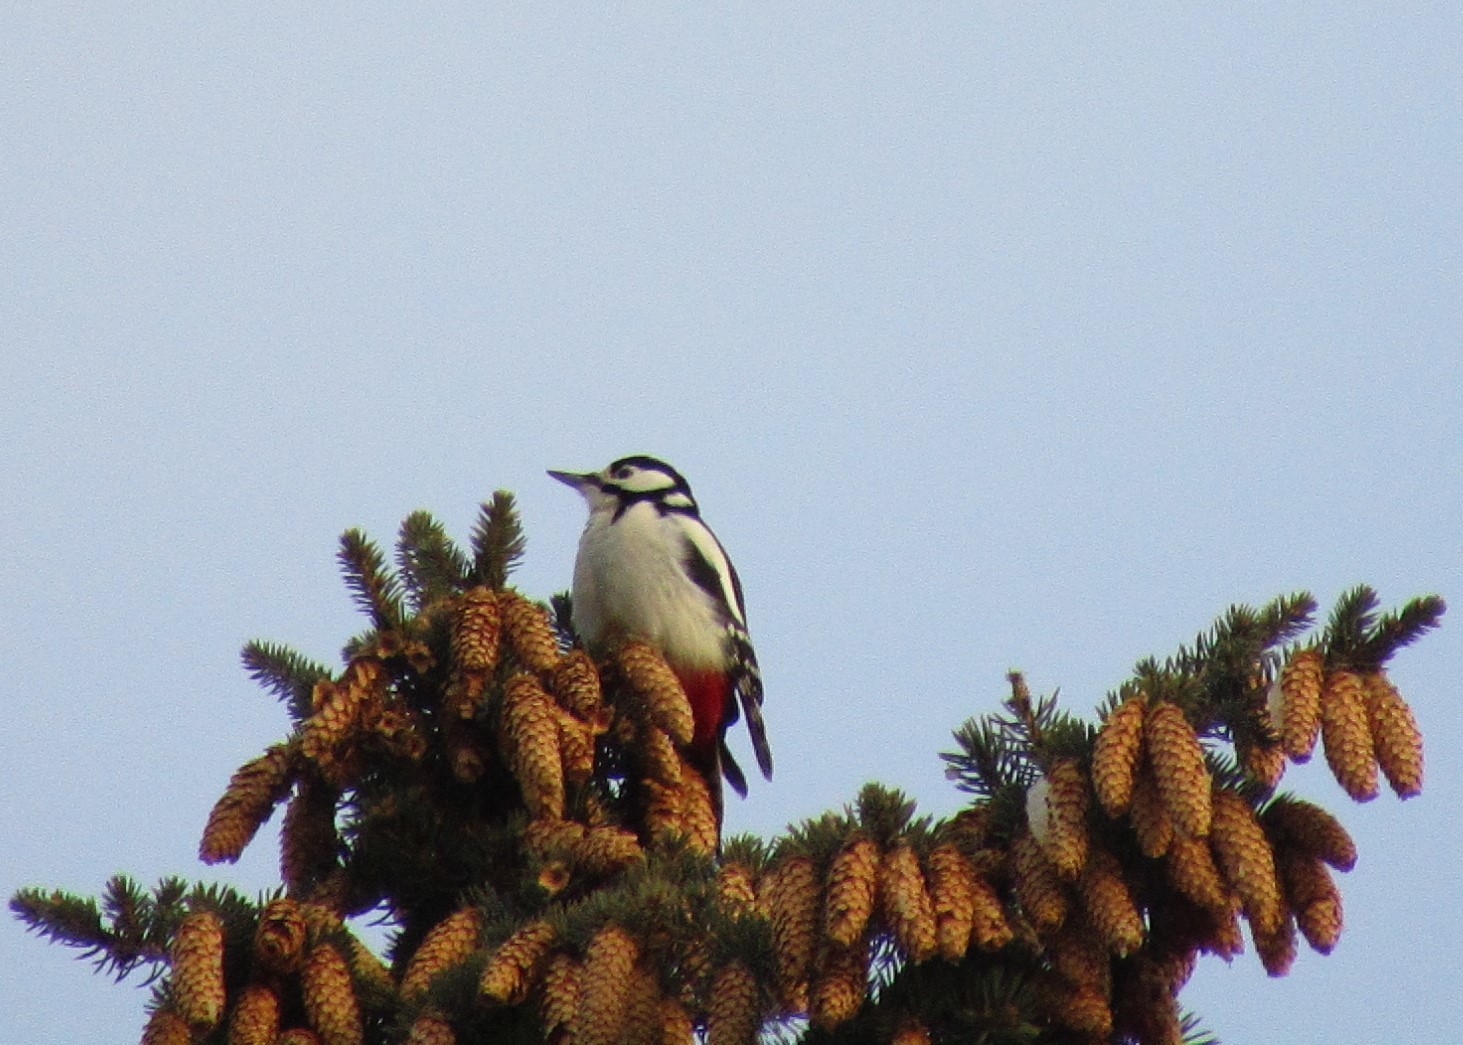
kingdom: Animalia
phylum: Chordata
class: Aves
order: Piciformes
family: Picidae
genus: Dendrocopos
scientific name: Dendrocopos major
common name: Great spotted woodpecker
